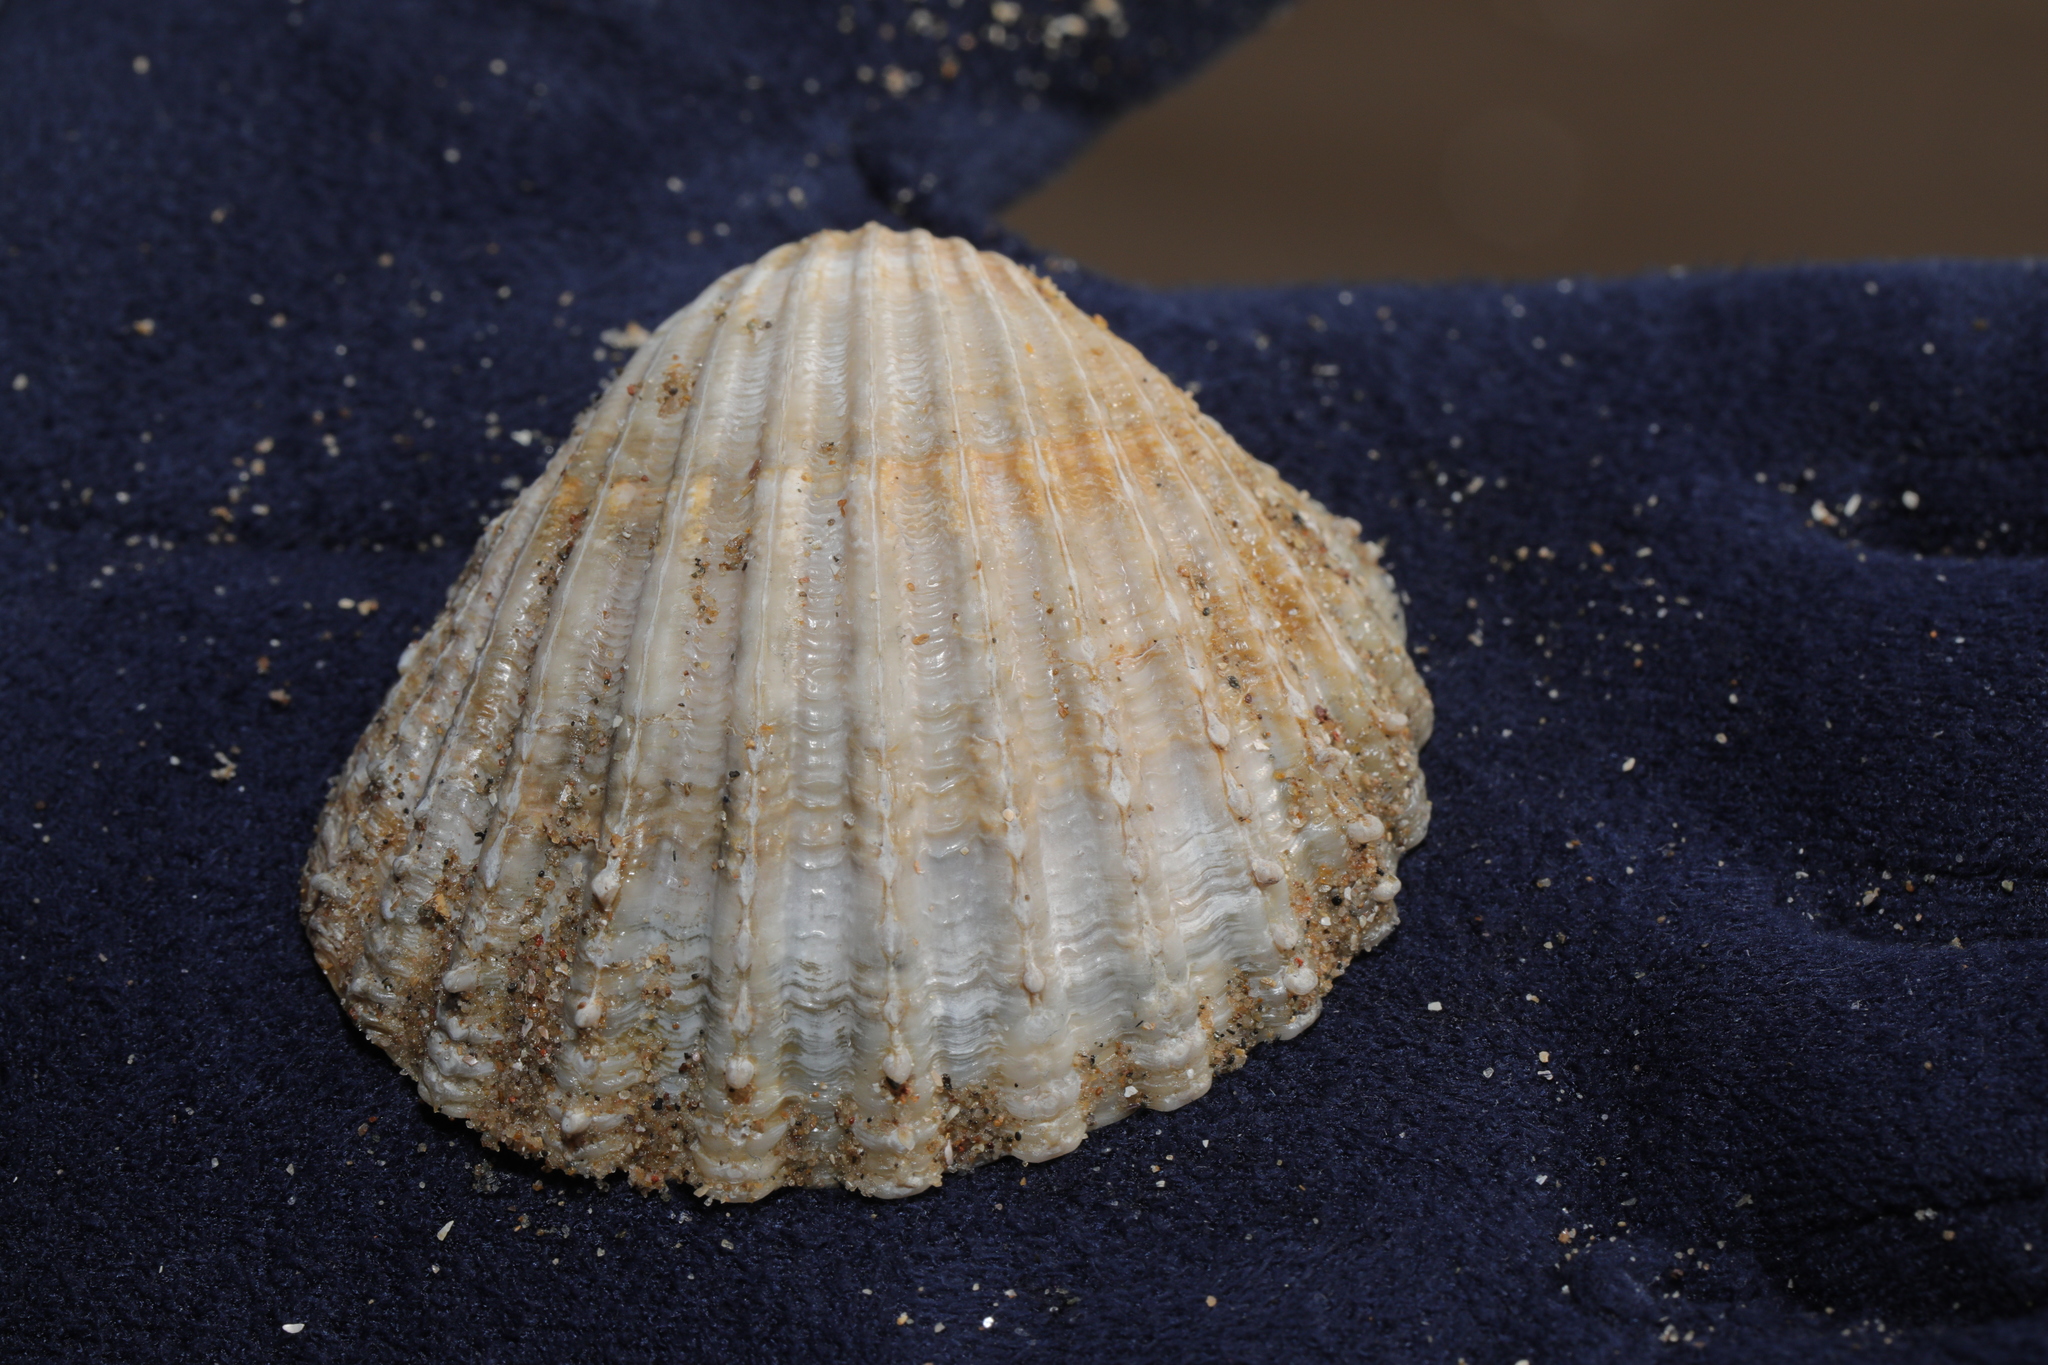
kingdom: Animalia
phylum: Mollusca
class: Bivalvia
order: Cardiida
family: Cardiidae
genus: Acanthocardia
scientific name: Acanthocardia echinata
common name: Prickly cockle
